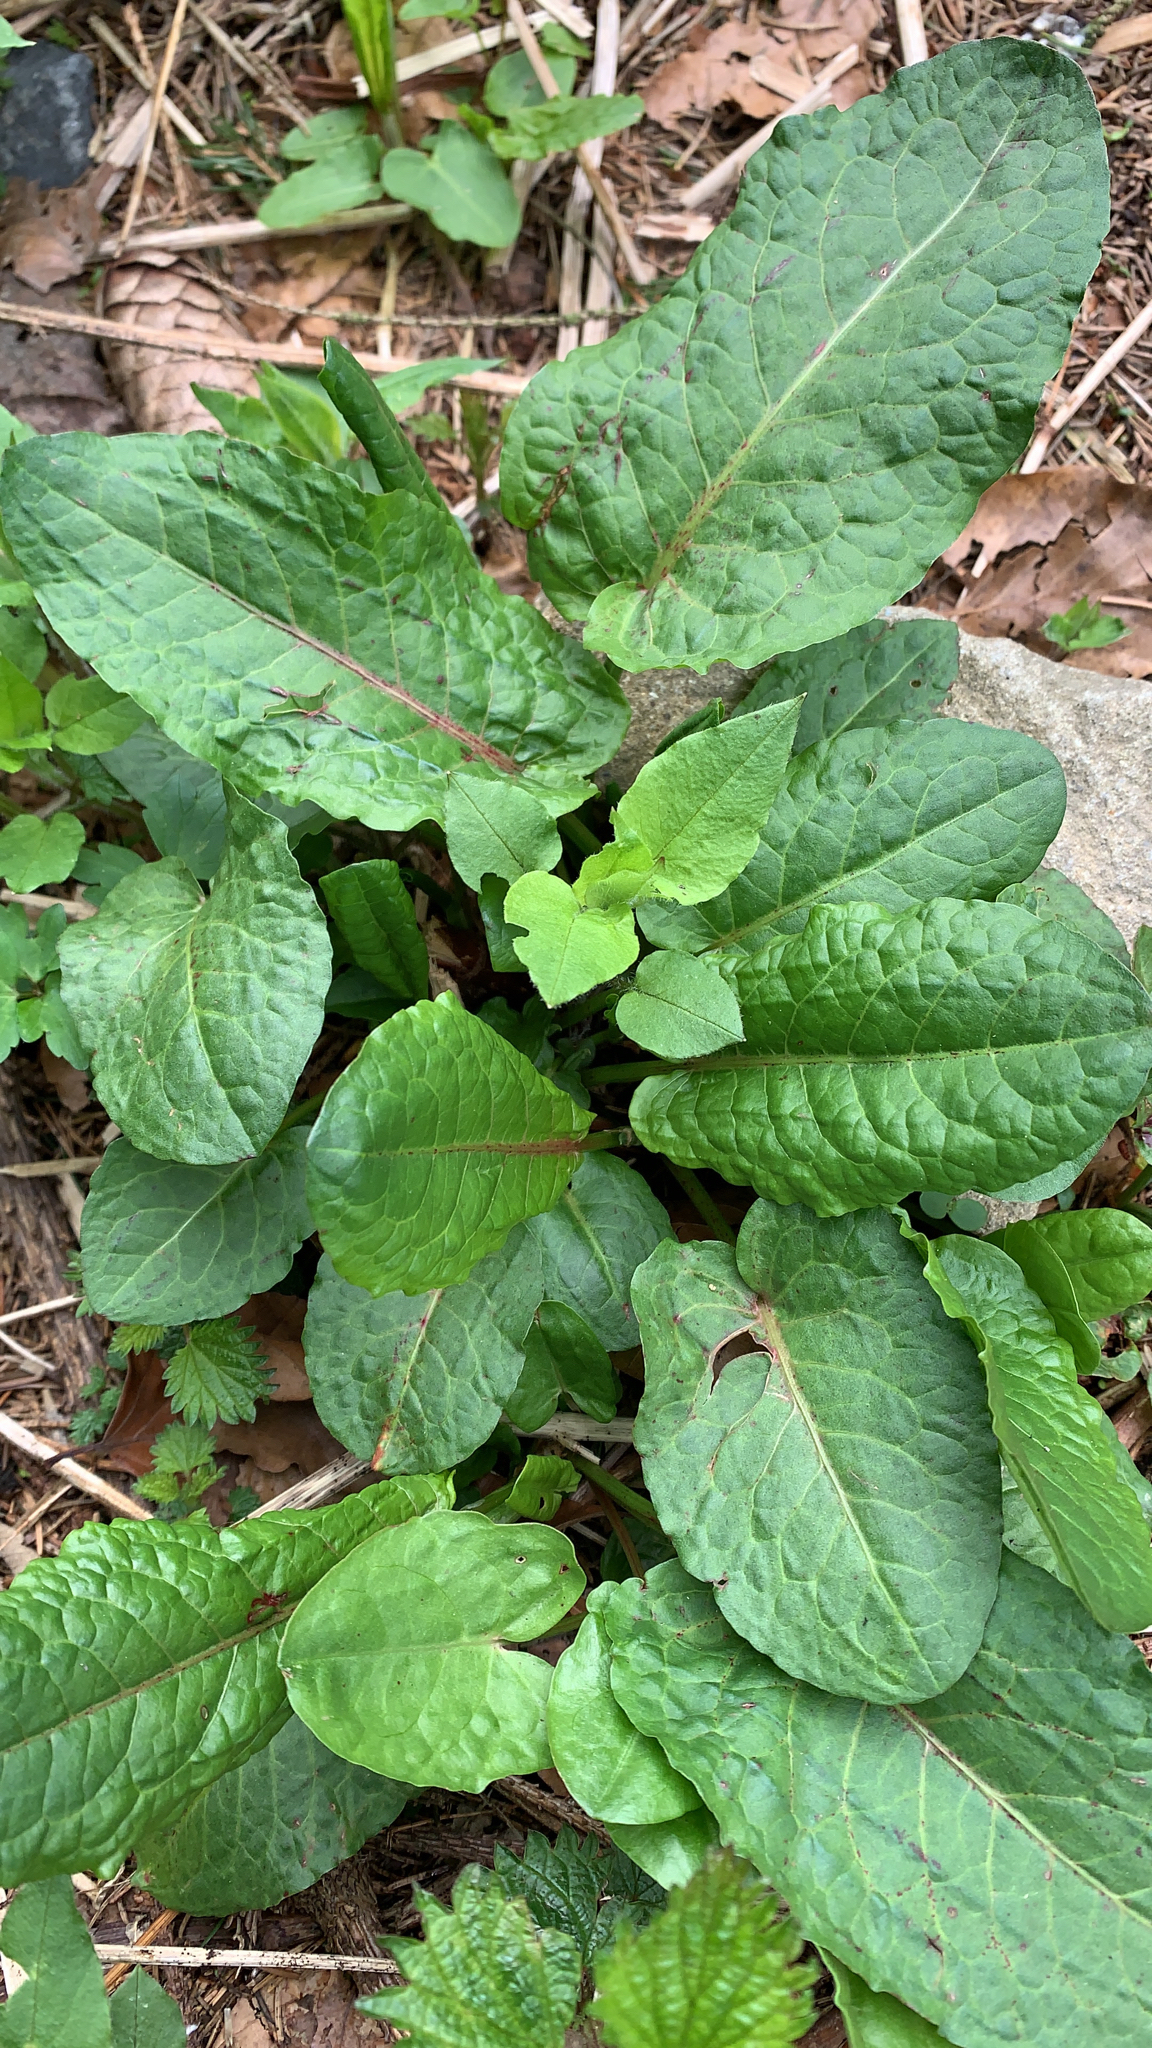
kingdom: Plantae
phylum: Tracheophyta
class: Magnoliopsida
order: Caryophyllales
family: Polygonaceae
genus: Rumex
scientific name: Rumex obtusifolius
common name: Bitter dock
